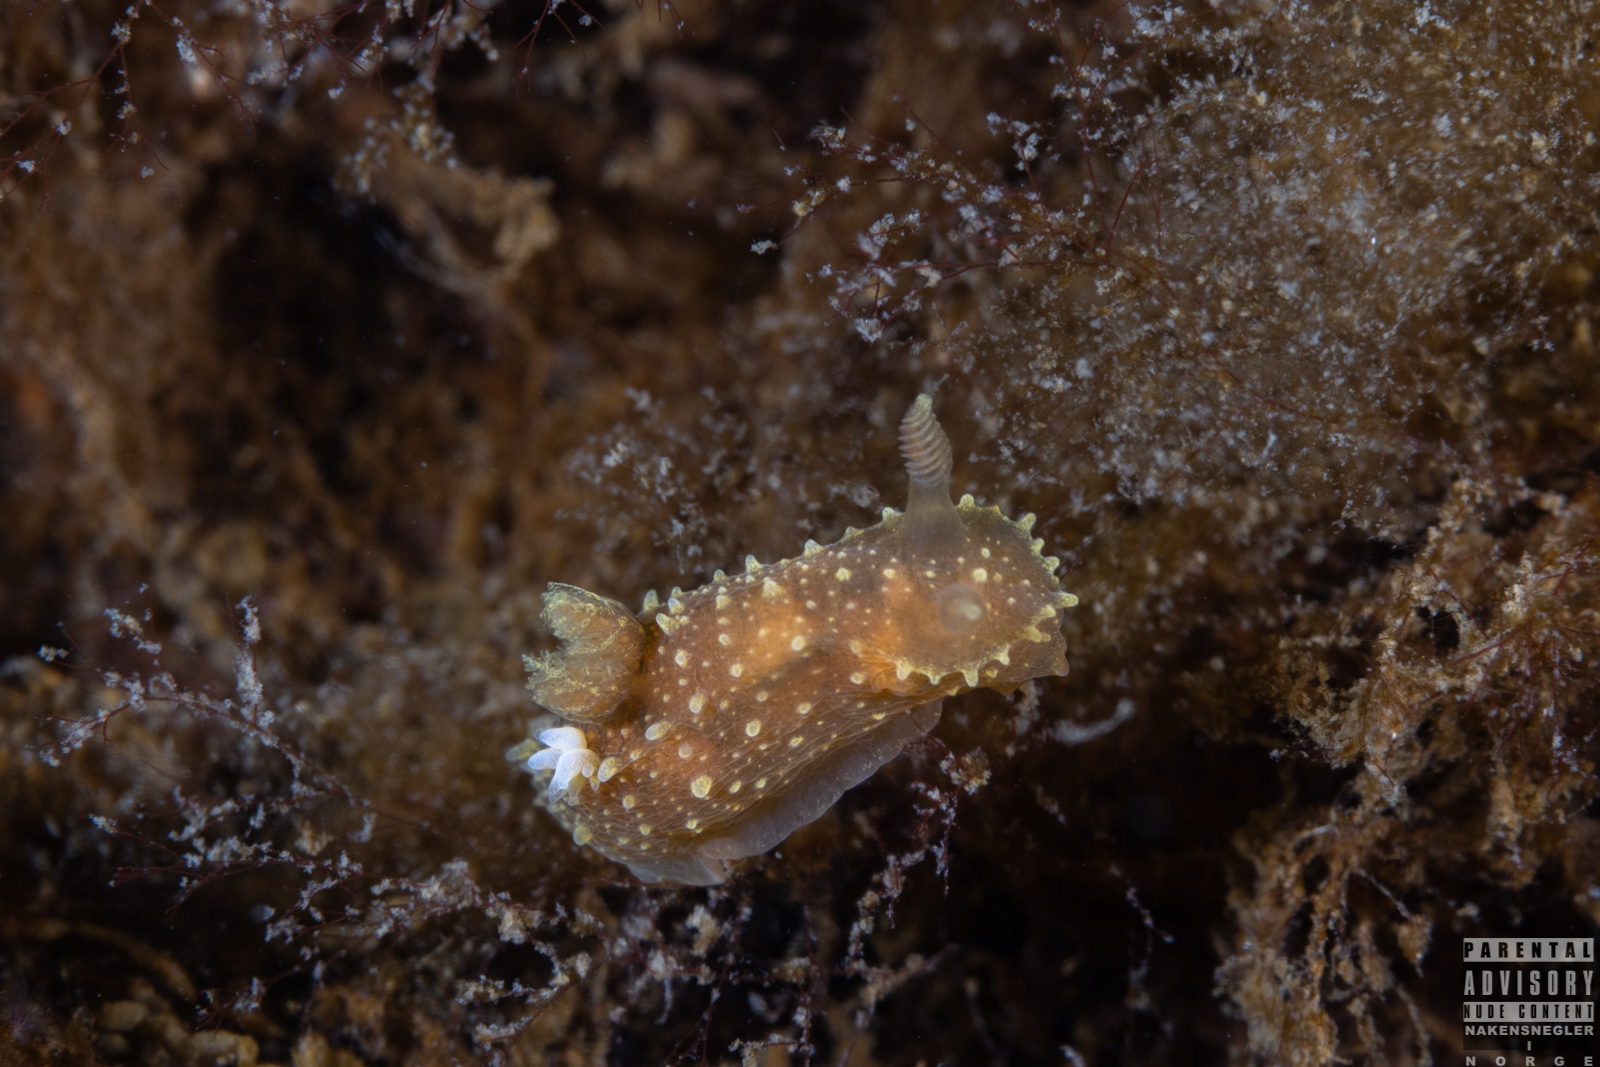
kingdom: Animalia
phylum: Mollusca
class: Gastropoda
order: Nudibranchia
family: Polyceridae
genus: Palio
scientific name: Palio dubia
